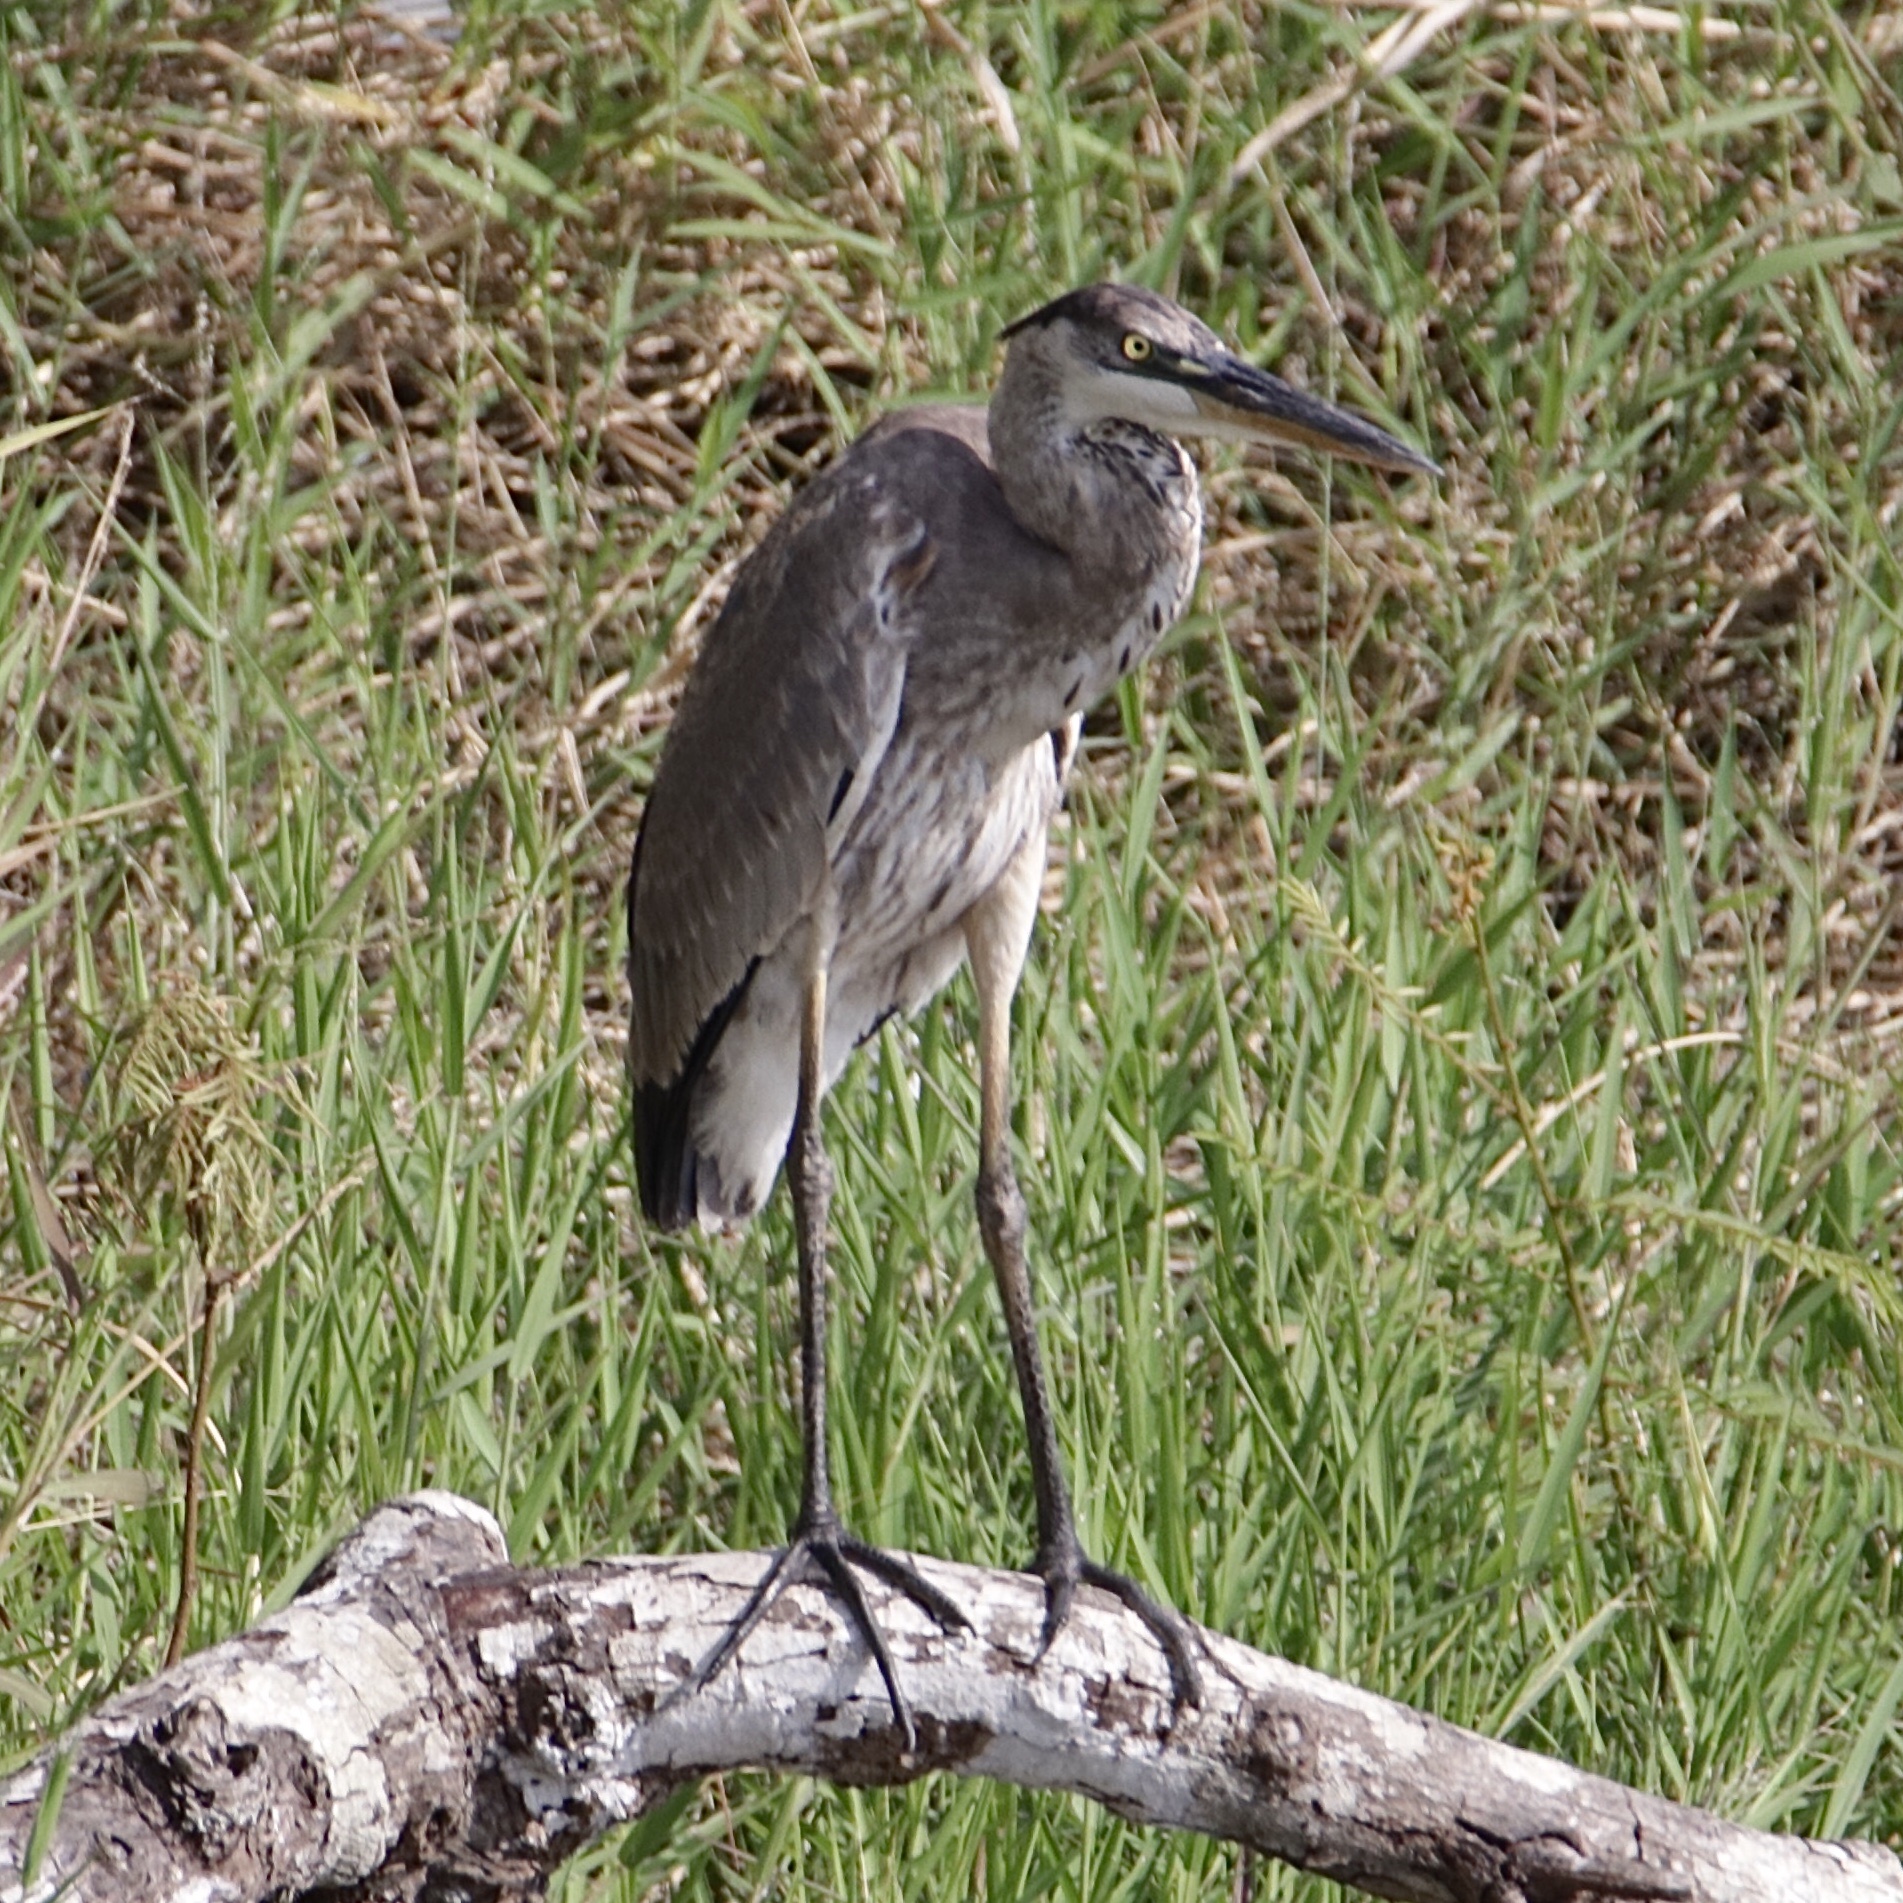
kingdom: Animalia
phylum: Chordata
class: Aves
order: Pelecaniformes
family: Ardeidae
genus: Ardea
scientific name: Ardea herodias
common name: Great blue heron
